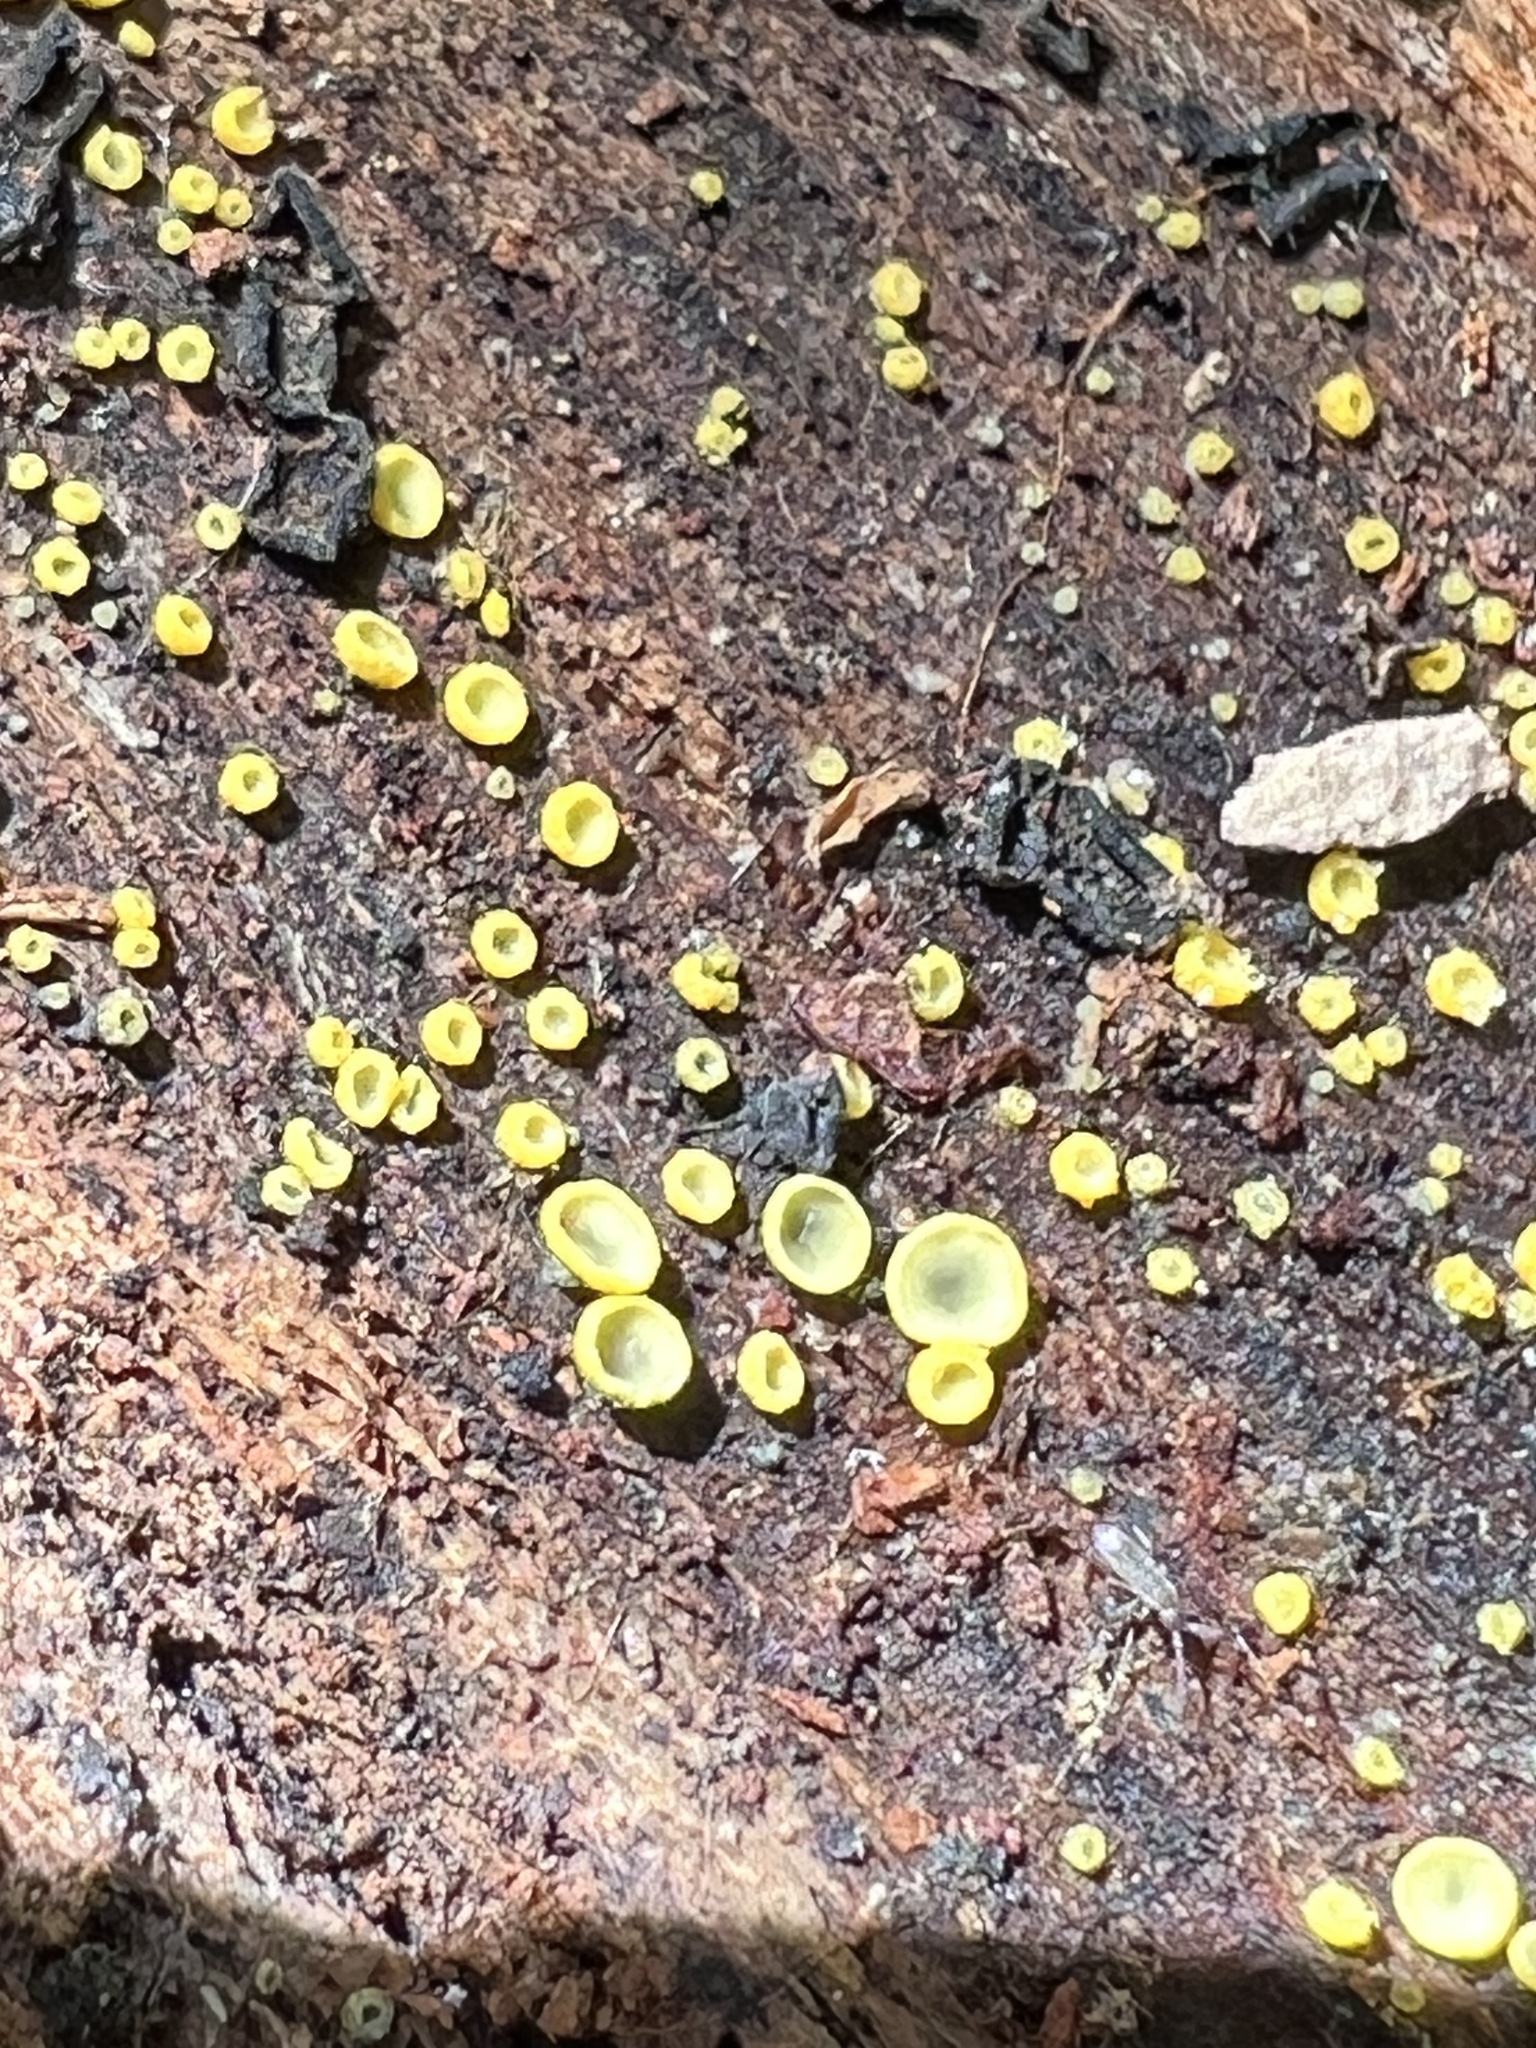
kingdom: Fungi
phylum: Ascomycota
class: Leotiomycetes
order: Helotiales
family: Chlorospleniaceae
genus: Chlorosplenium
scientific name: Chlorosplenium chlora
